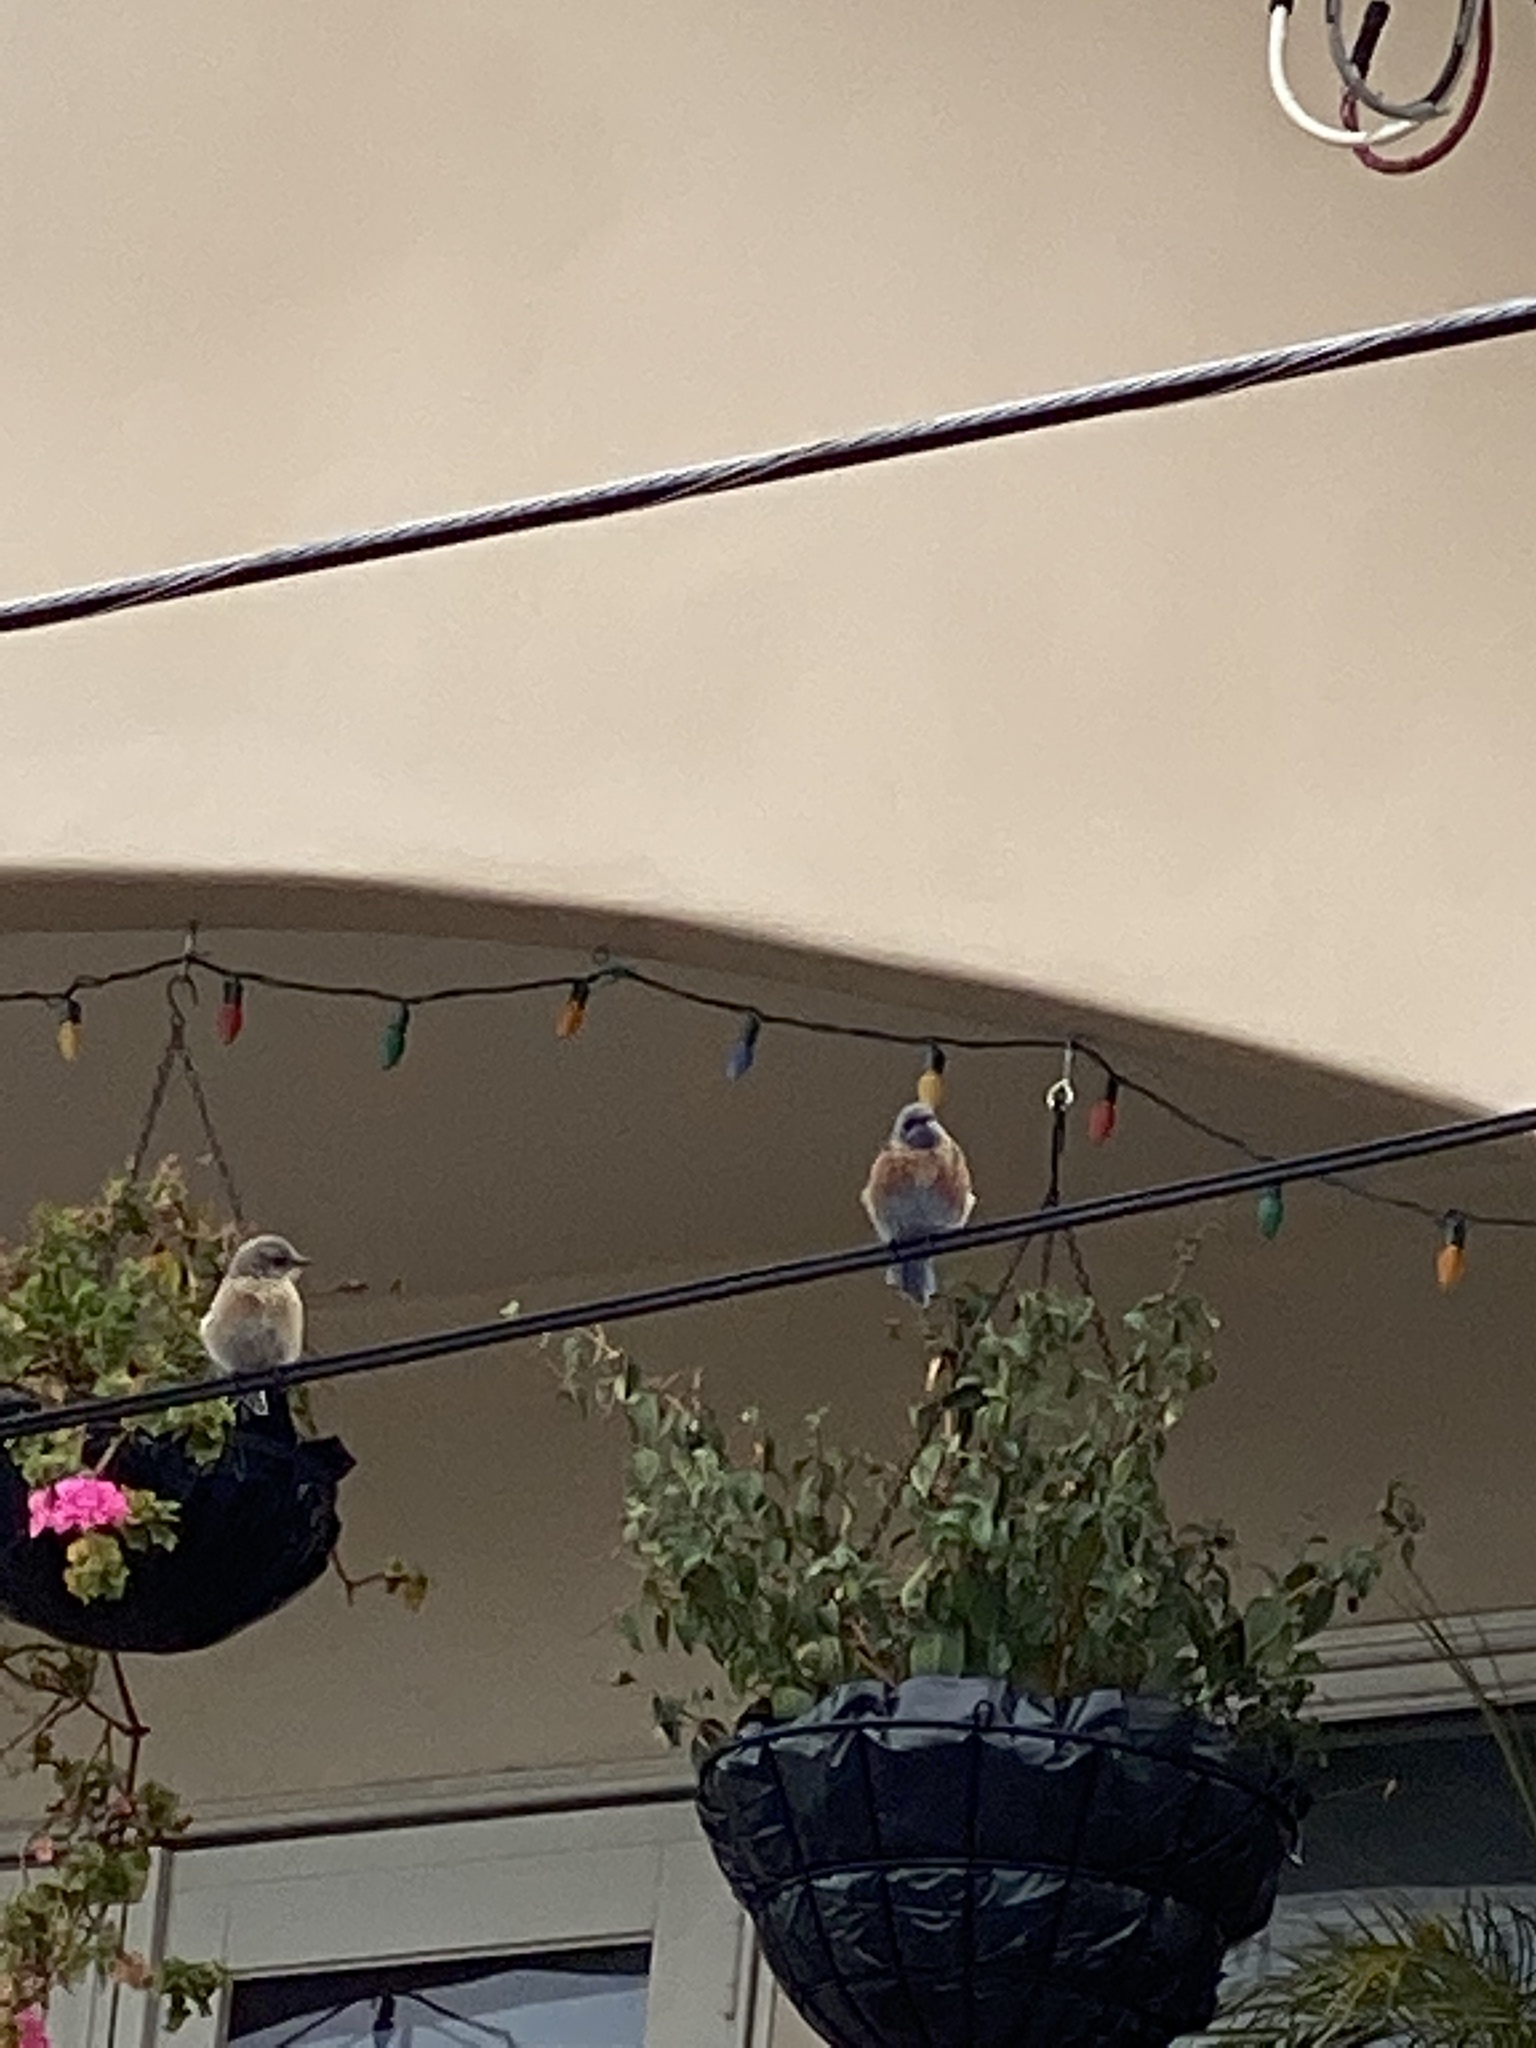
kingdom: Animalia
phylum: Chordata
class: Aves
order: Passeriformes
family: Turdidae
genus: Sialia
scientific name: Sialia mexicana
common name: Western bluebird
